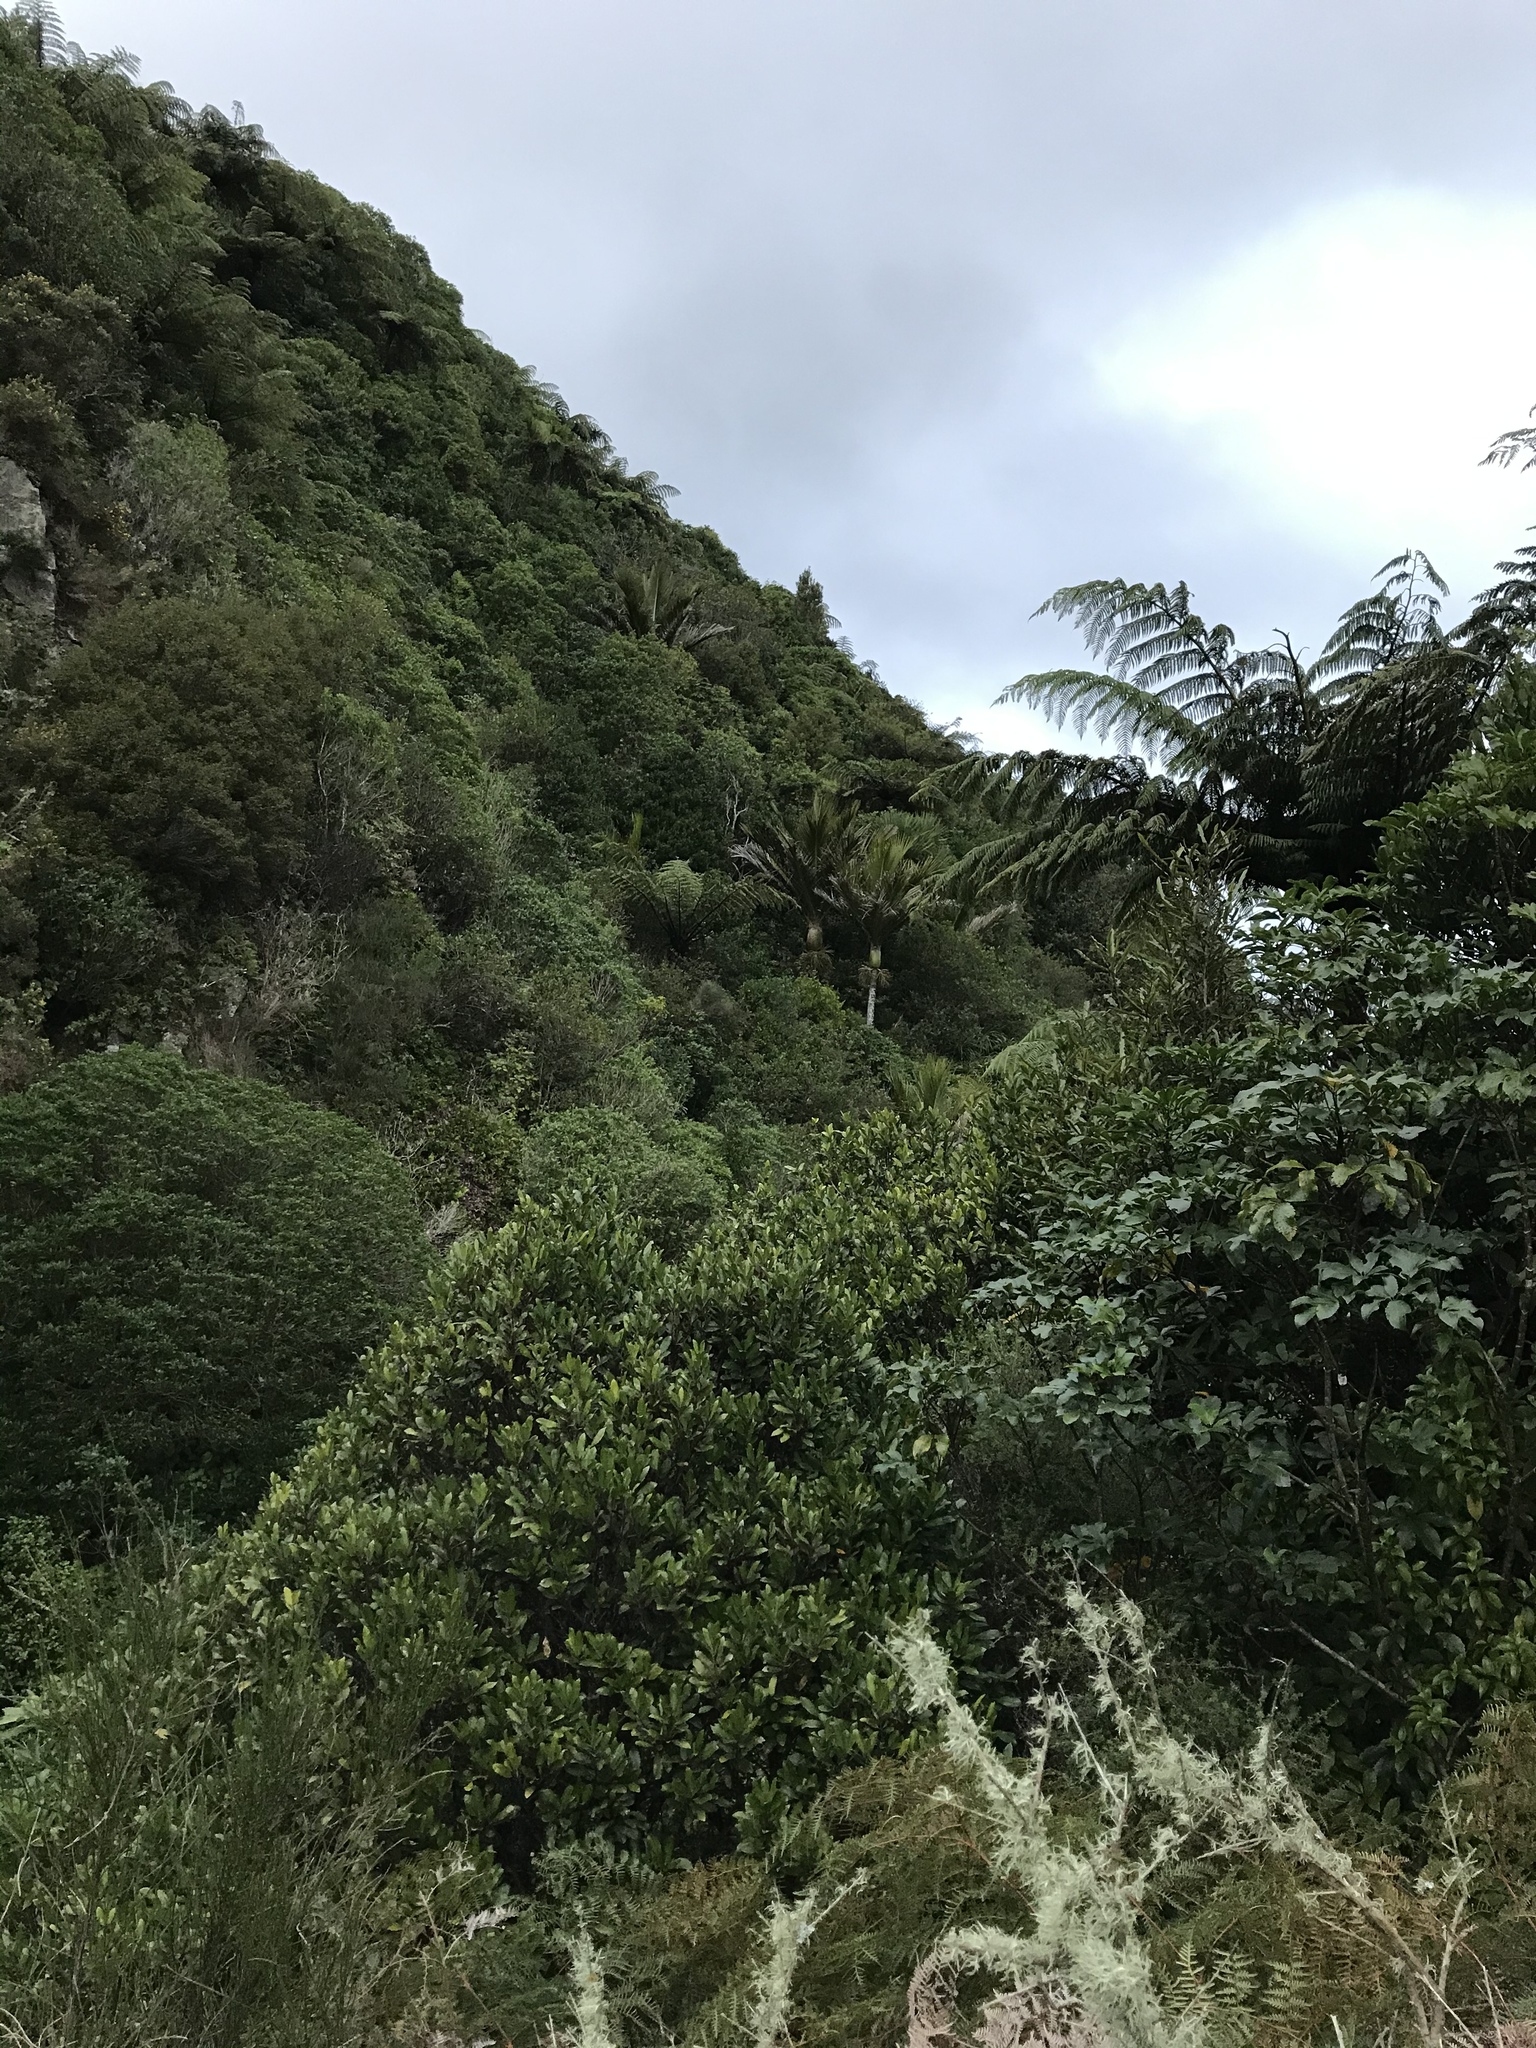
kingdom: Plantae
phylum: Tracheophyta
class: Liliopsida
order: Arecales
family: Arecaceae
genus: Rhopalostylis
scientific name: Rhopalostylis sapida
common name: Feather-duster palm
